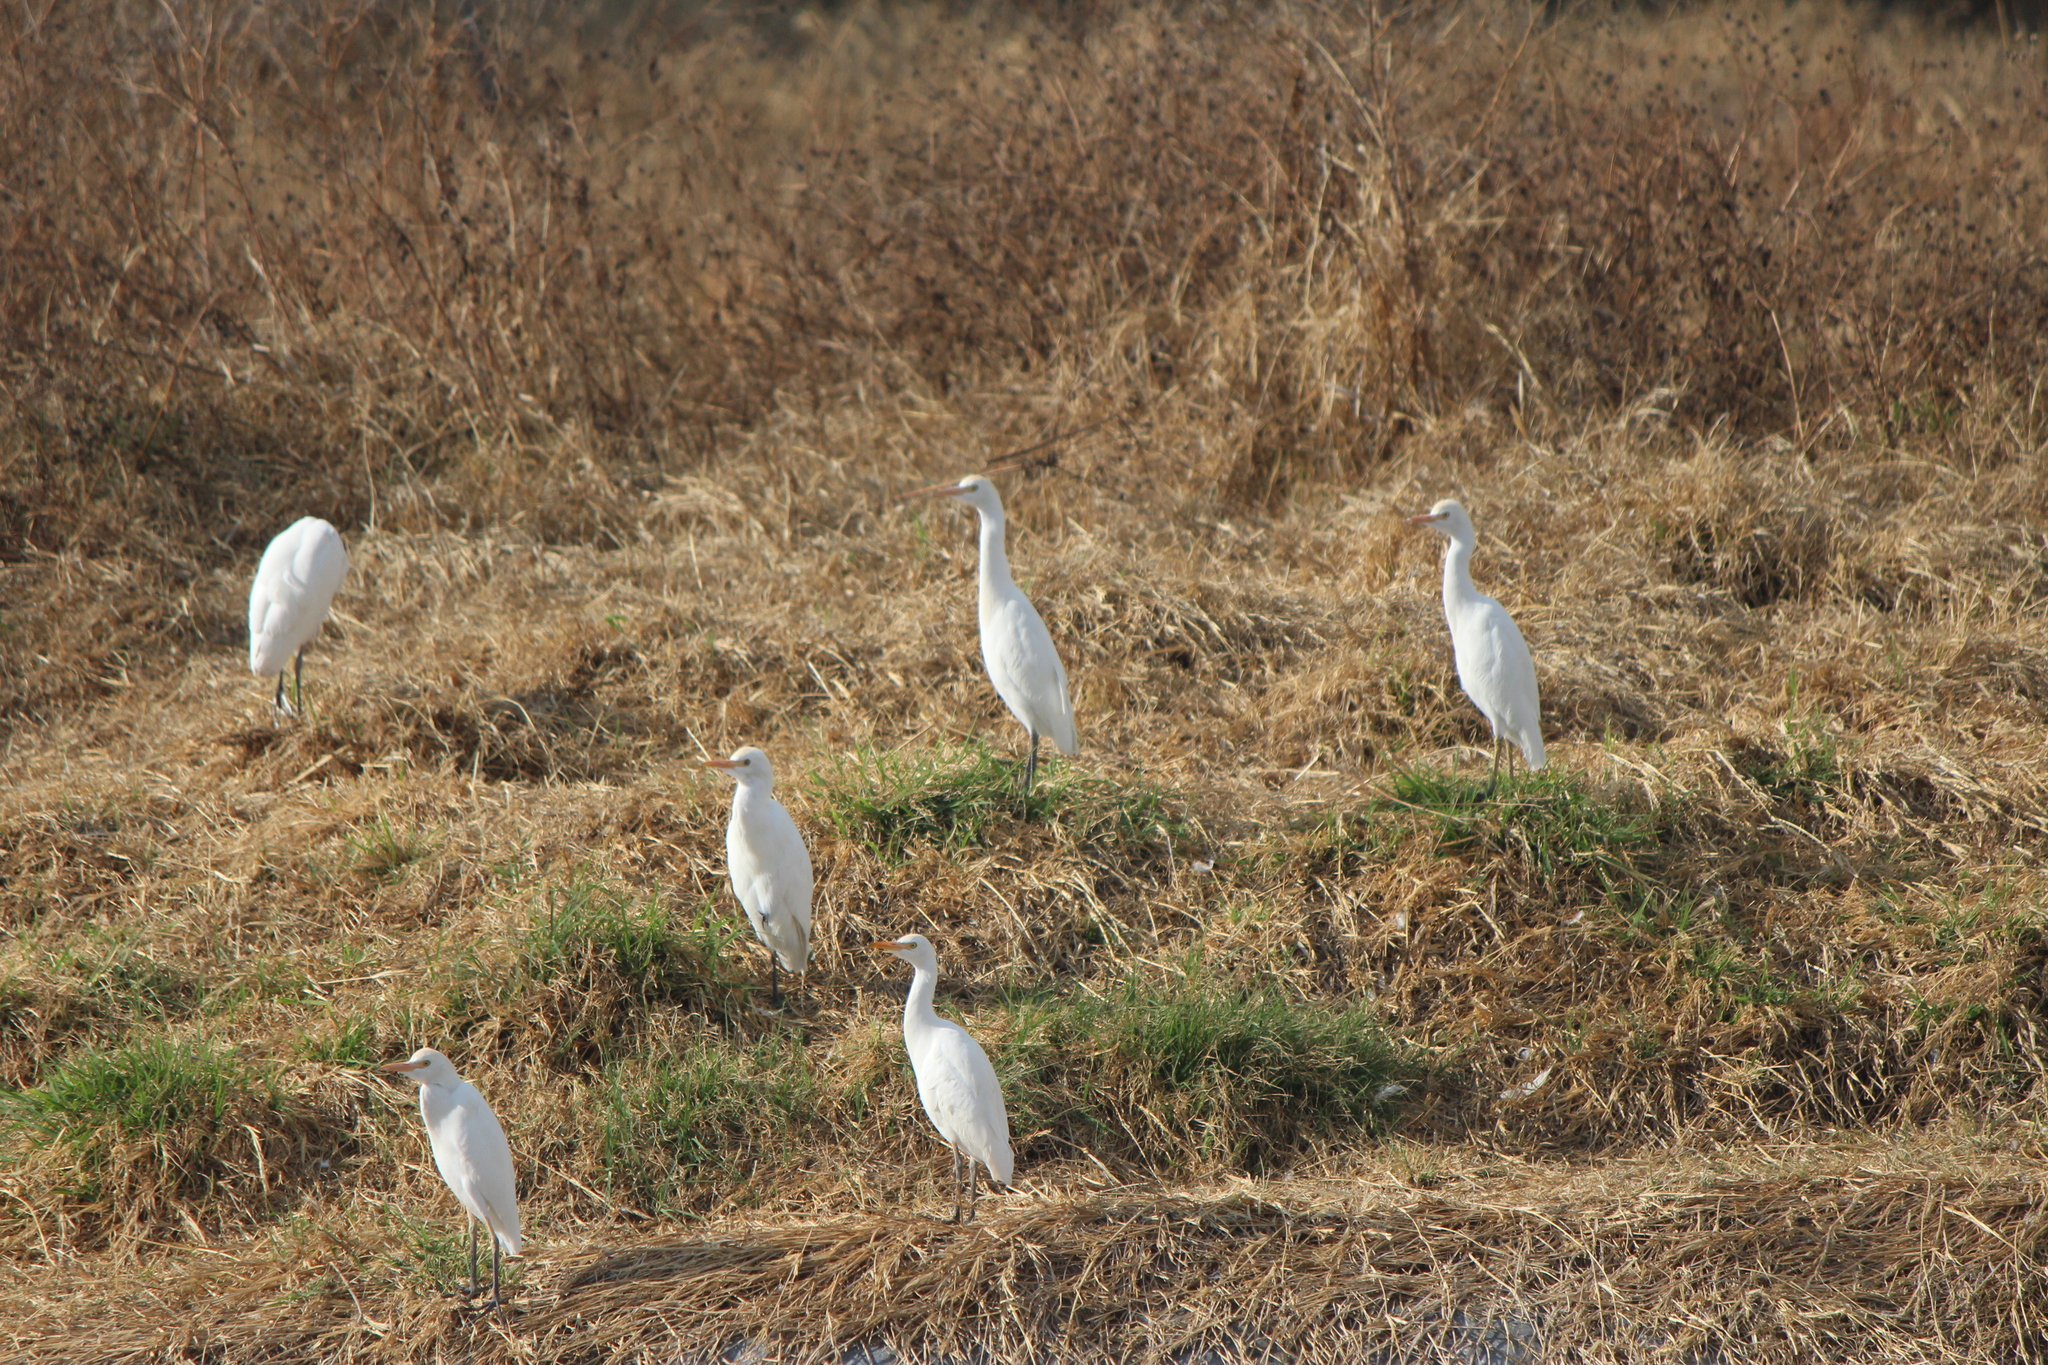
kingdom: Animalia
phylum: Chordata
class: Aves
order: Pelecaniformes
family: Ardeidae
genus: Bubulcus
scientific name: Bubulcus ibis
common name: Cattle egret
